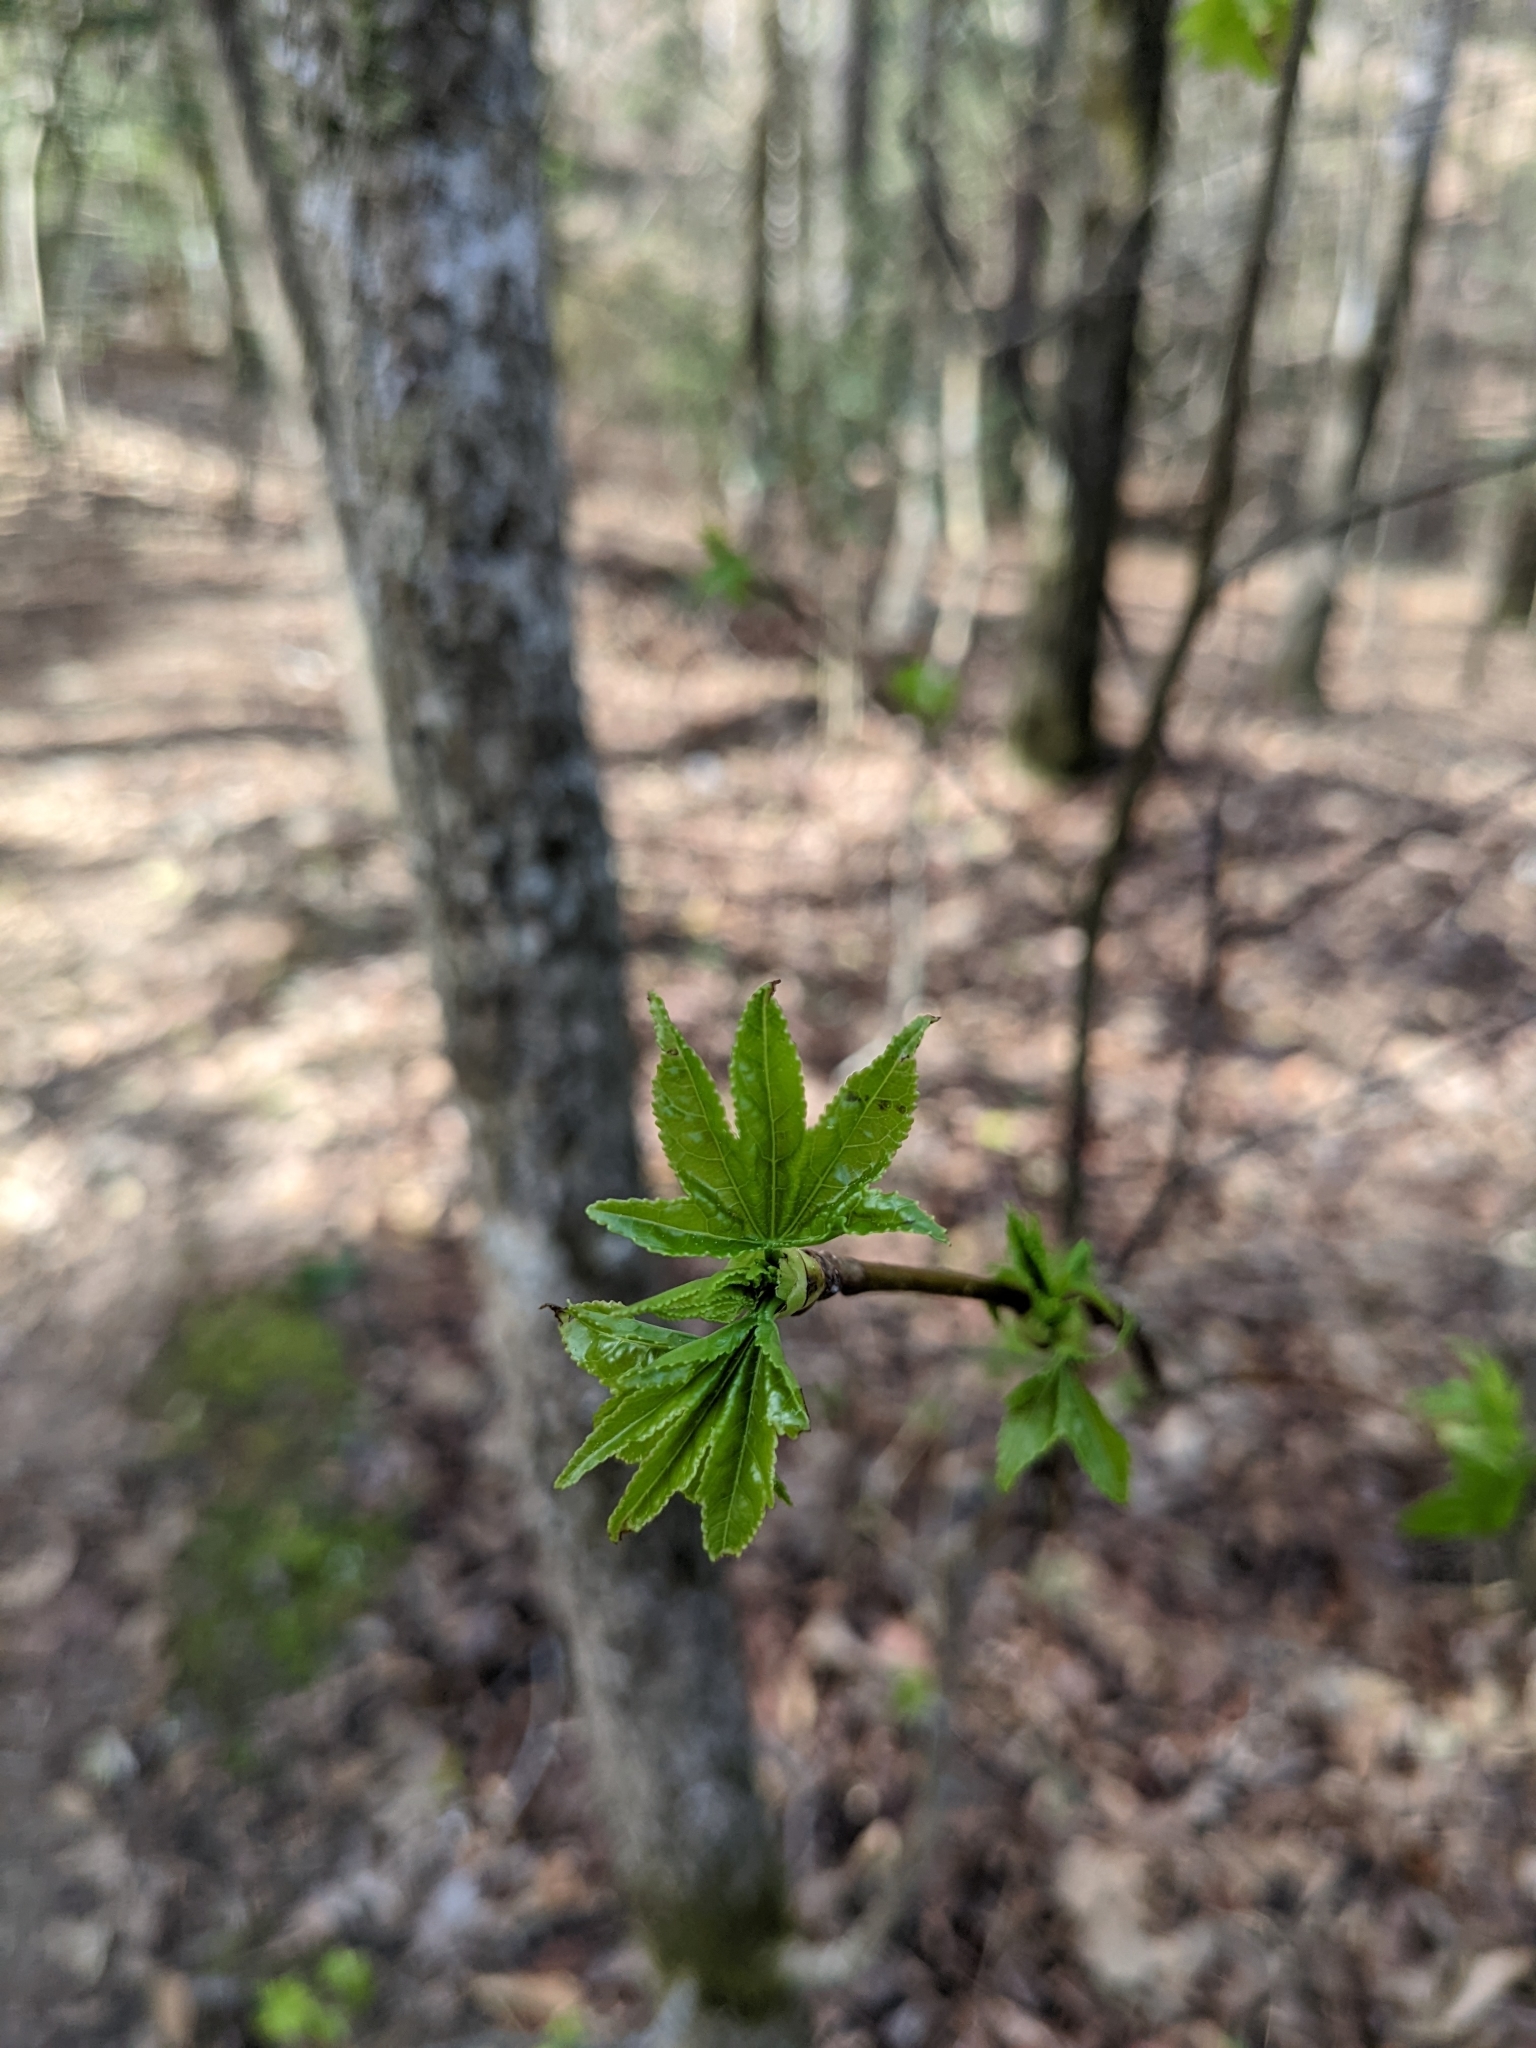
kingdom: Plantae
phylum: Tracheophyta
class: Magnoliopsida
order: Saxifragales
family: Altingiaceae
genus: Liquidambar
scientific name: Liquidambar styraciflua
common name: Sweet gum
